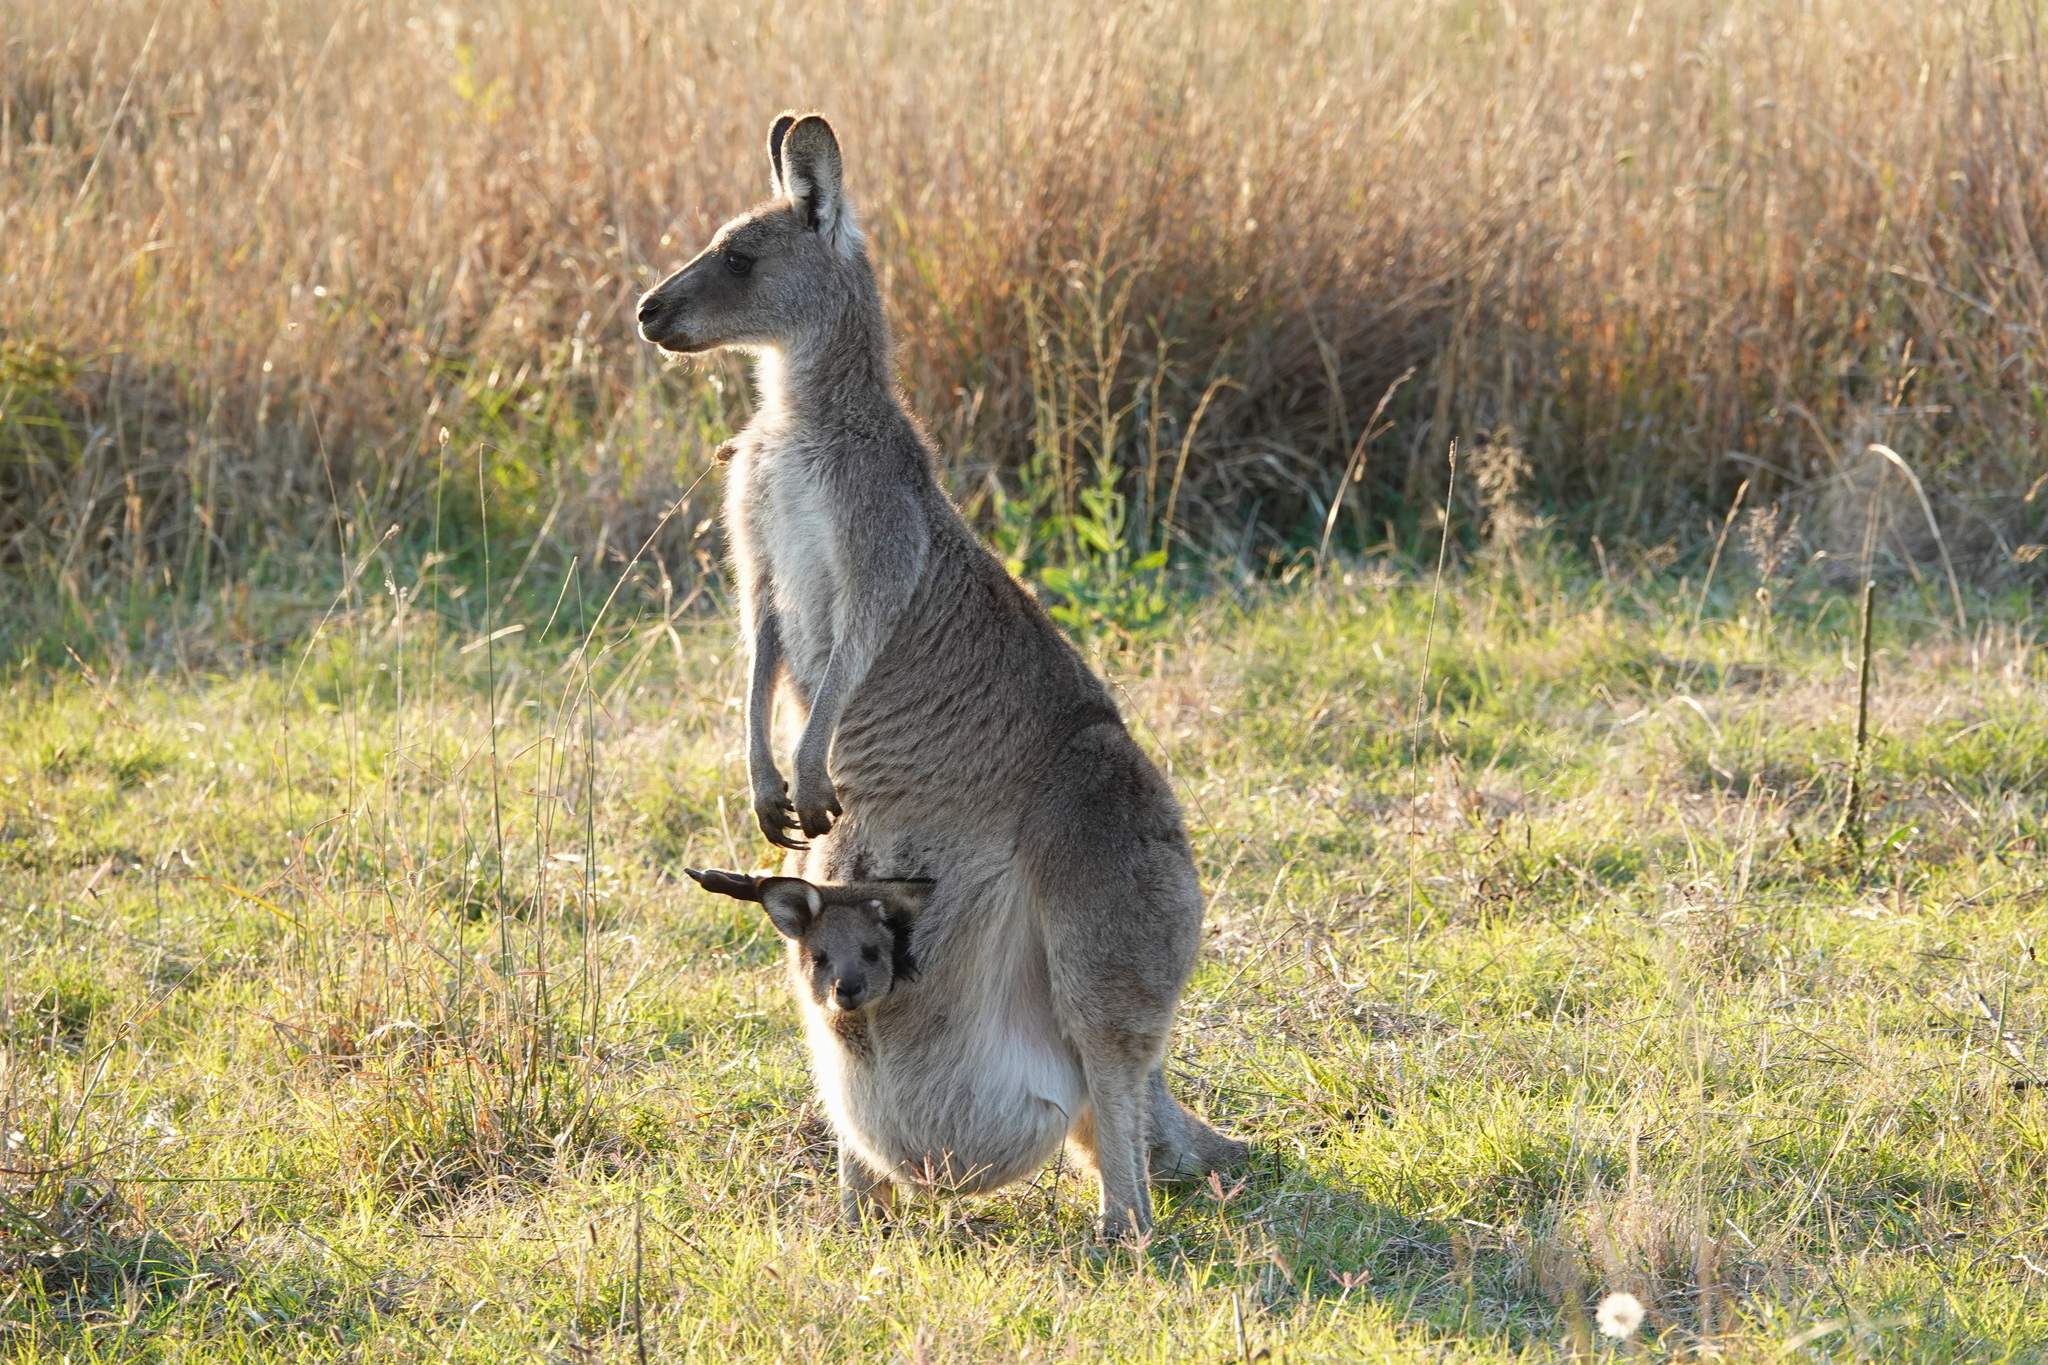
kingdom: Animalia
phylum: Chordata
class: Mammalia
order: Diprotodontia
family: Macropodidae
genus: Macropus
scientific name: Macropus giganteus
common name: Eastern grey kangaroo
